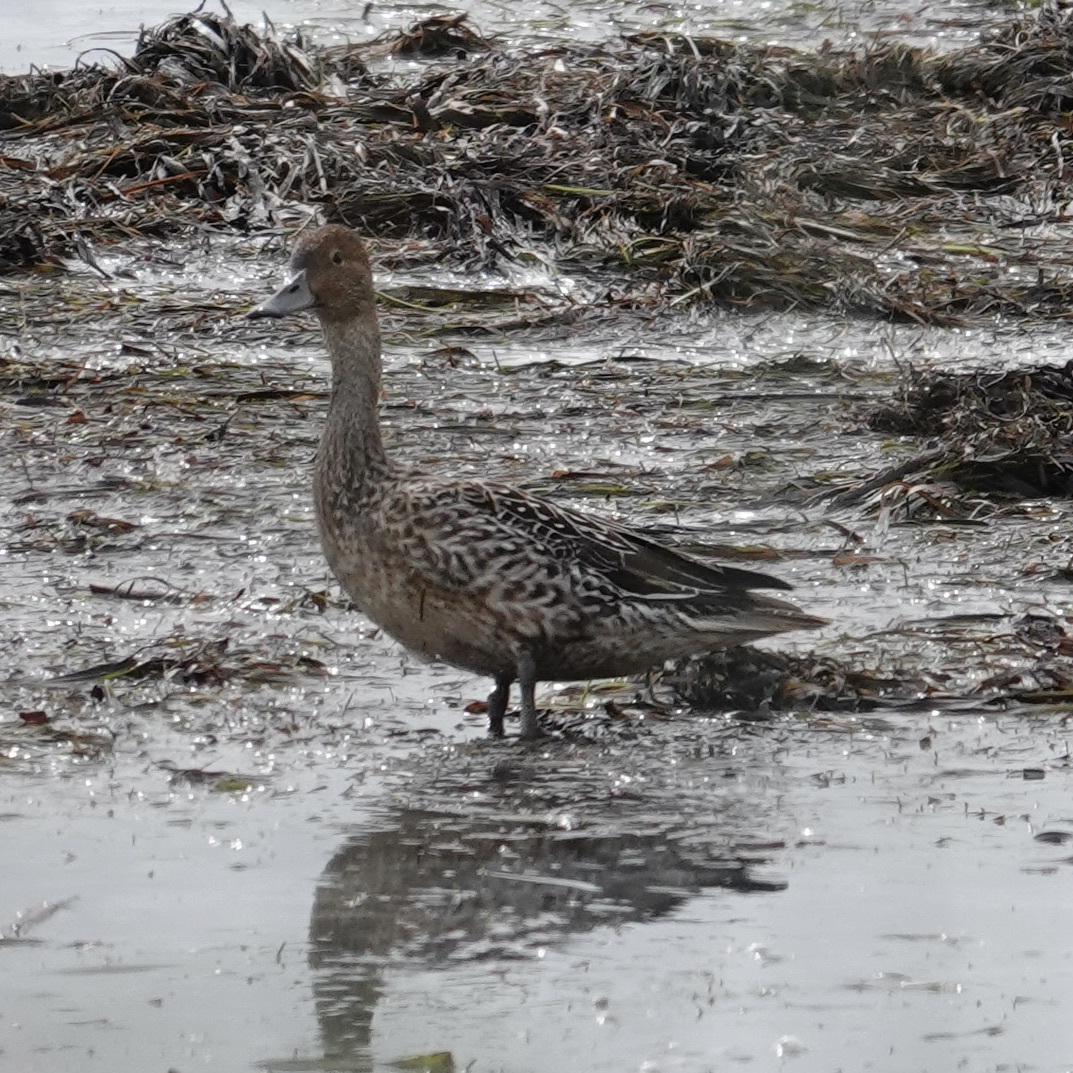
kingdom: Animalia
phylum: Chordata
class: Aves
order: Anseriformes
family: Anatidae
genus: Anas
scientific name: Anas acuta
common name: Northern pintail
